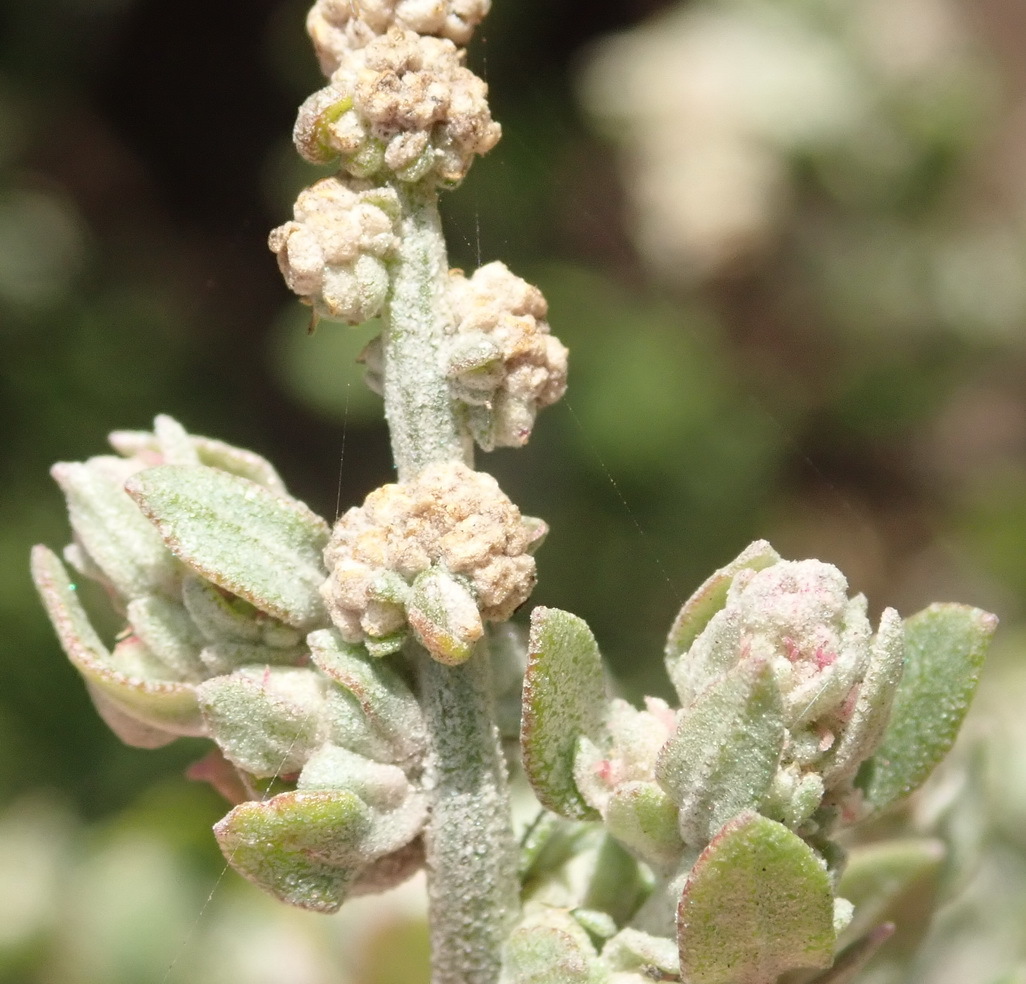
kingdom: Plantae
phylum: Tracheophyta
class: Magnoliopsida
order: Caryophyllales
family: Amaranthaceae
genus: Exomis
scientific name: Exomis albicans
